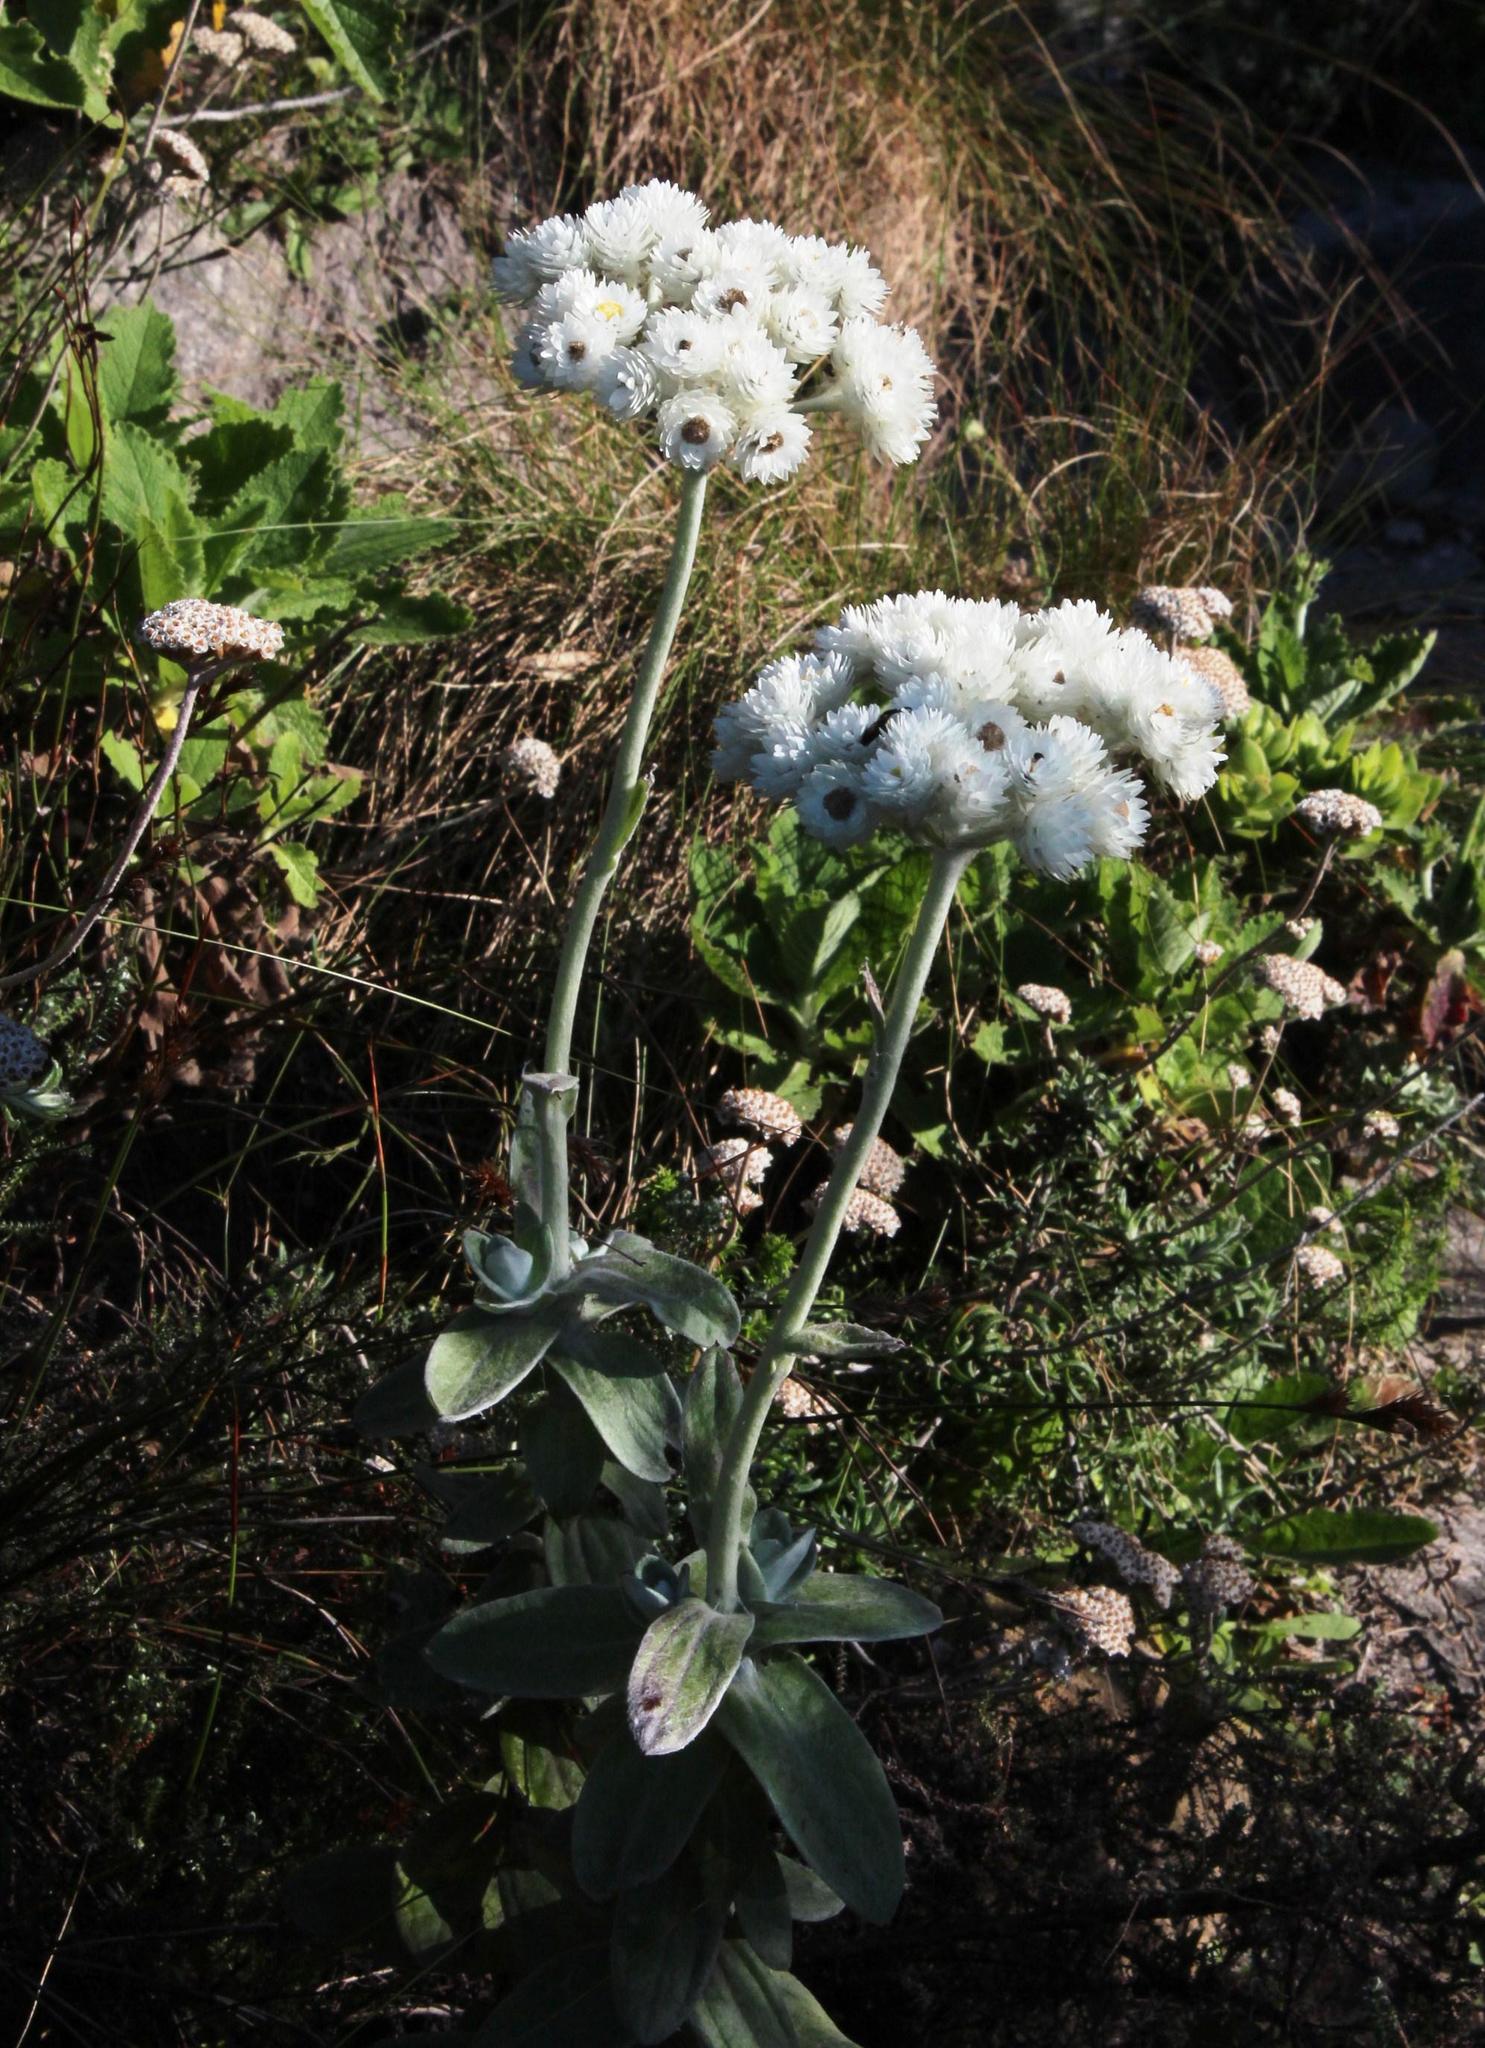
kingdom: Plantae
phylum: Tracheophyta
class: Magnoliopsida
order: Asterales
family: Asteraceae
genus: Helichrysum
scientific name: Helichrysum fruticans
